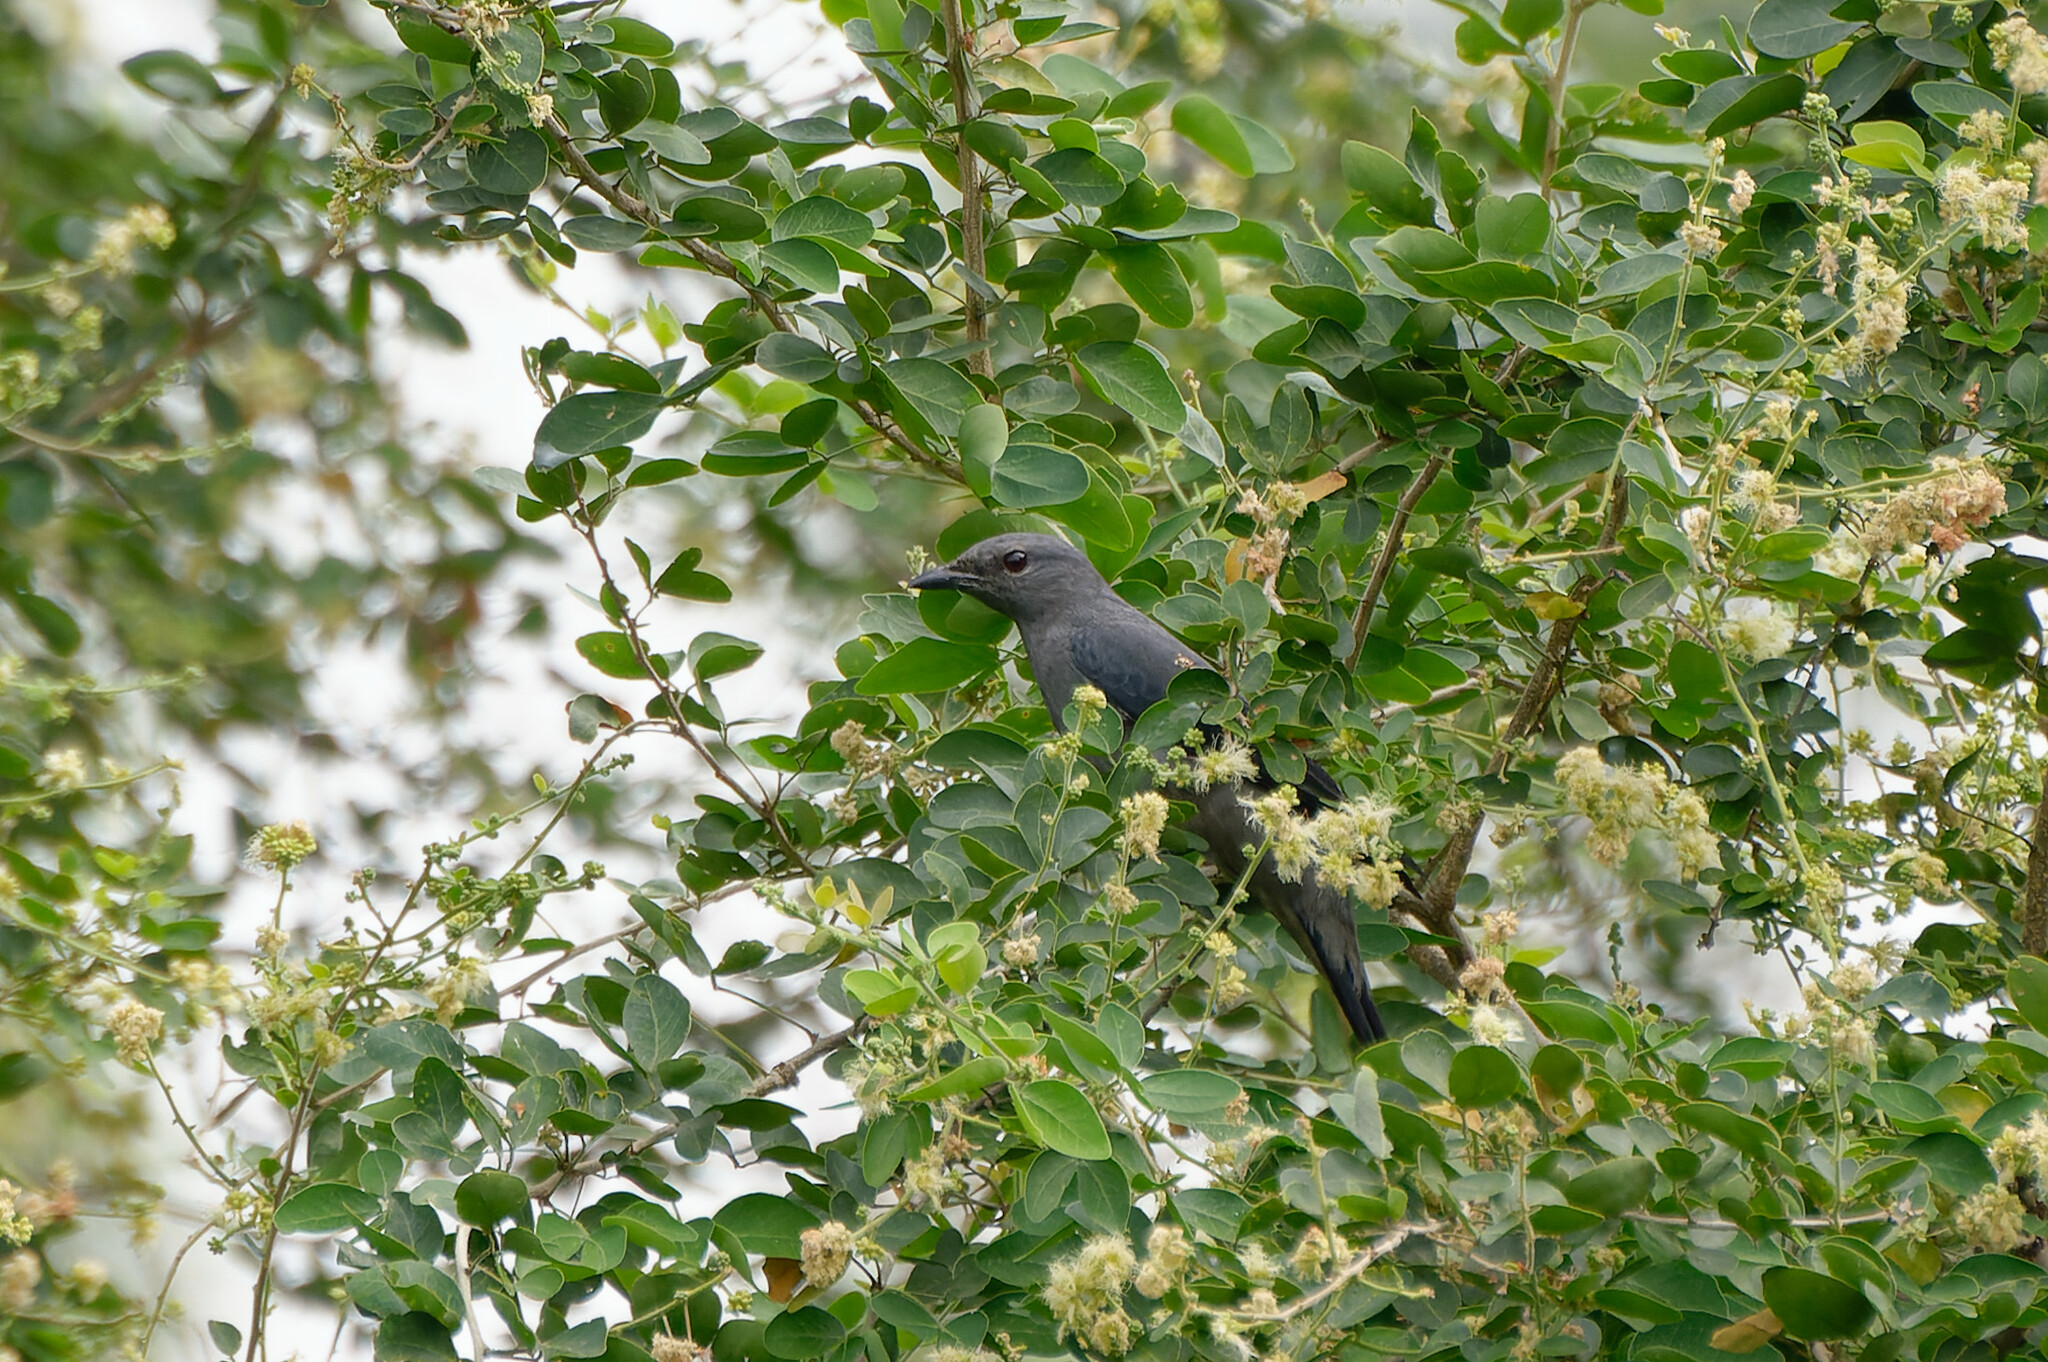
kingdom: Animalia
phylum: Chordata
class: Aves
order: Passeriformes
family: Campephagidae
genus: Coracina
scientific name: Coracina melaschistos
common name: Black-winged cuckooshrike
